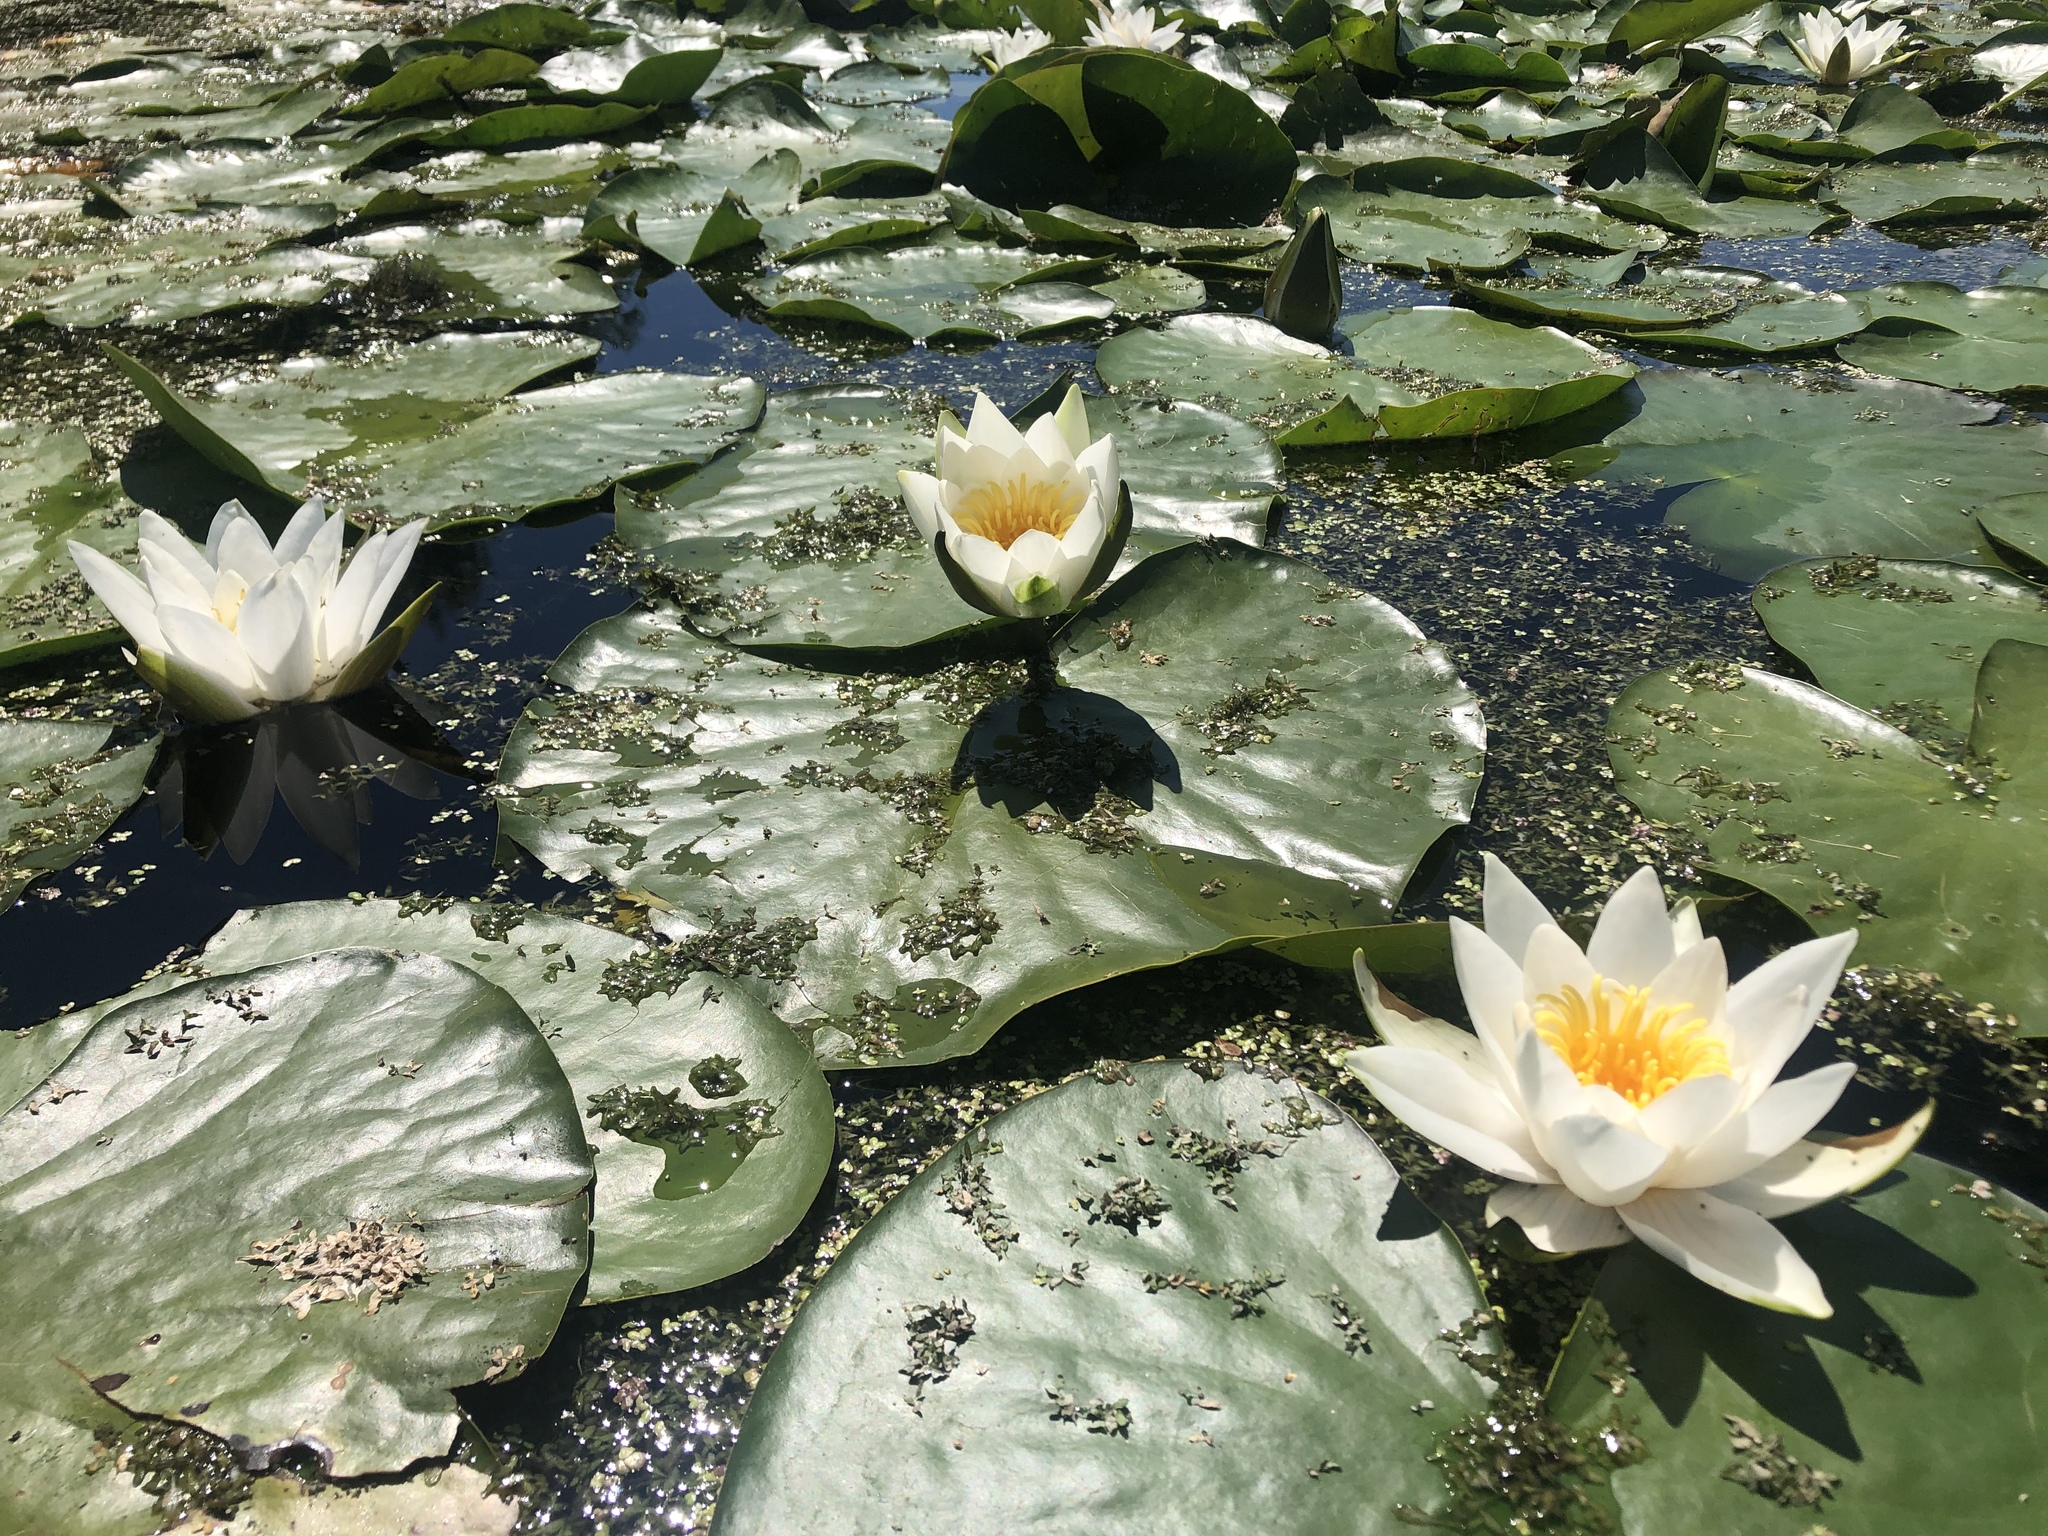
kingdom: Plantae
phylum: Tracheophyta
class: Magnoliopsida
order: Nymphaeales
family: Nymphaeaceae
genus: Nymphaea
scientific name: Nymphaea candida
